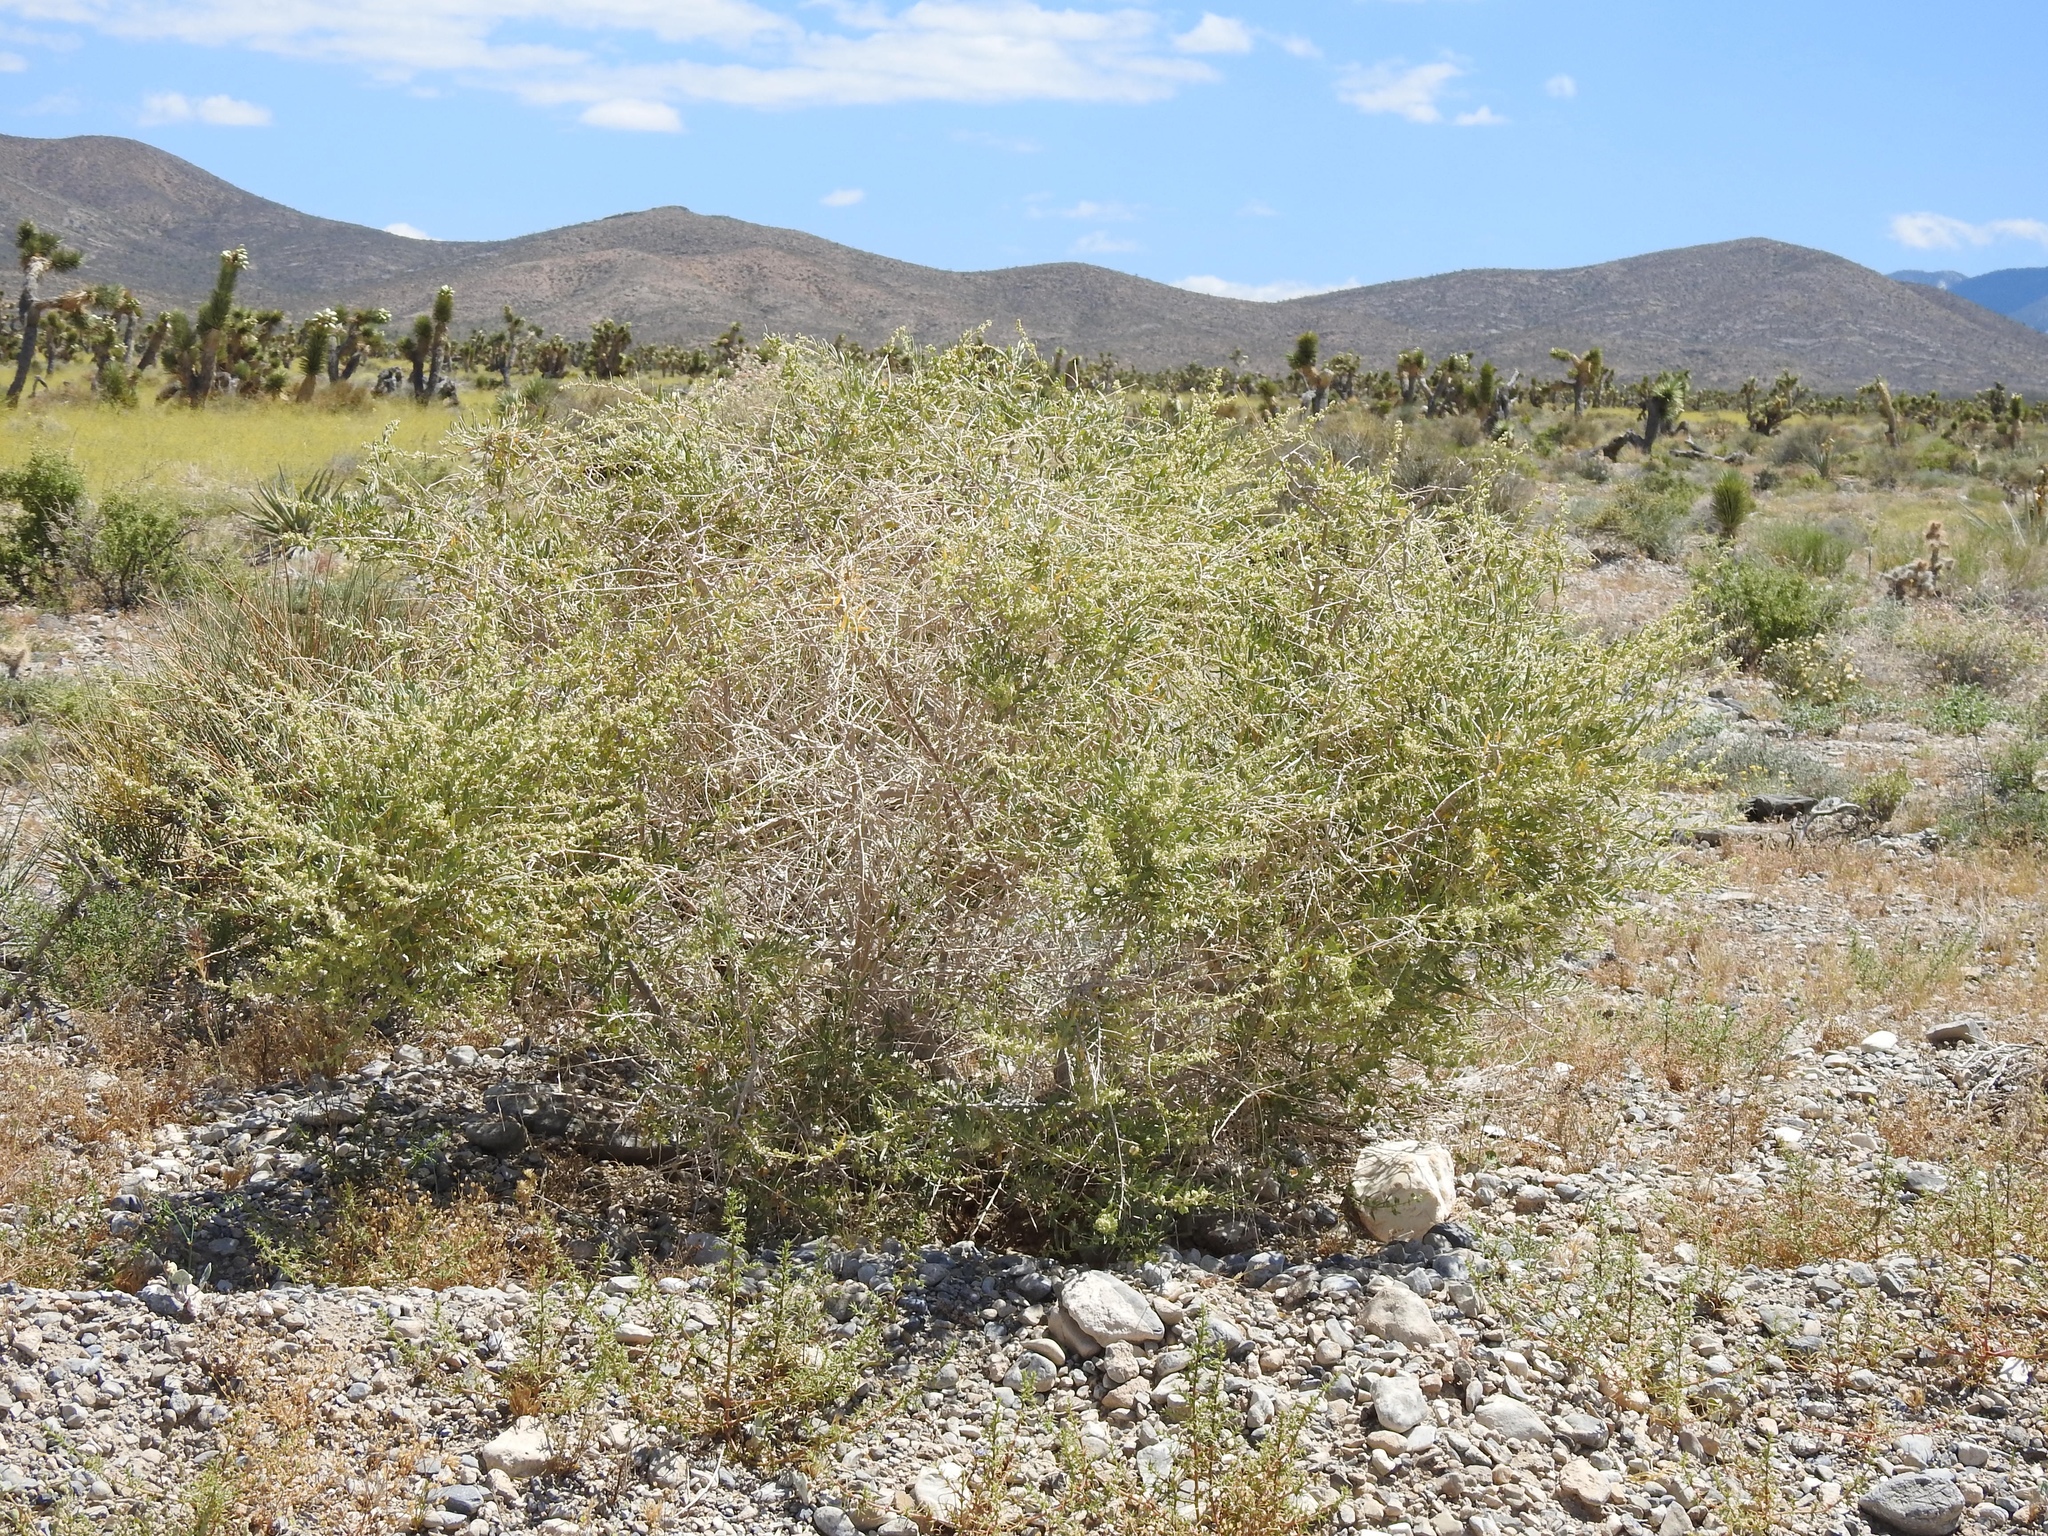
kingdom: Plantae
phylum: Tracheophyta
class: Magnoliopsida
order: Caryophyllales
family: Amaranthaceae
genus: Atriplex
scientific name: Atriplex canescens
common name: Four-wing saltbush
